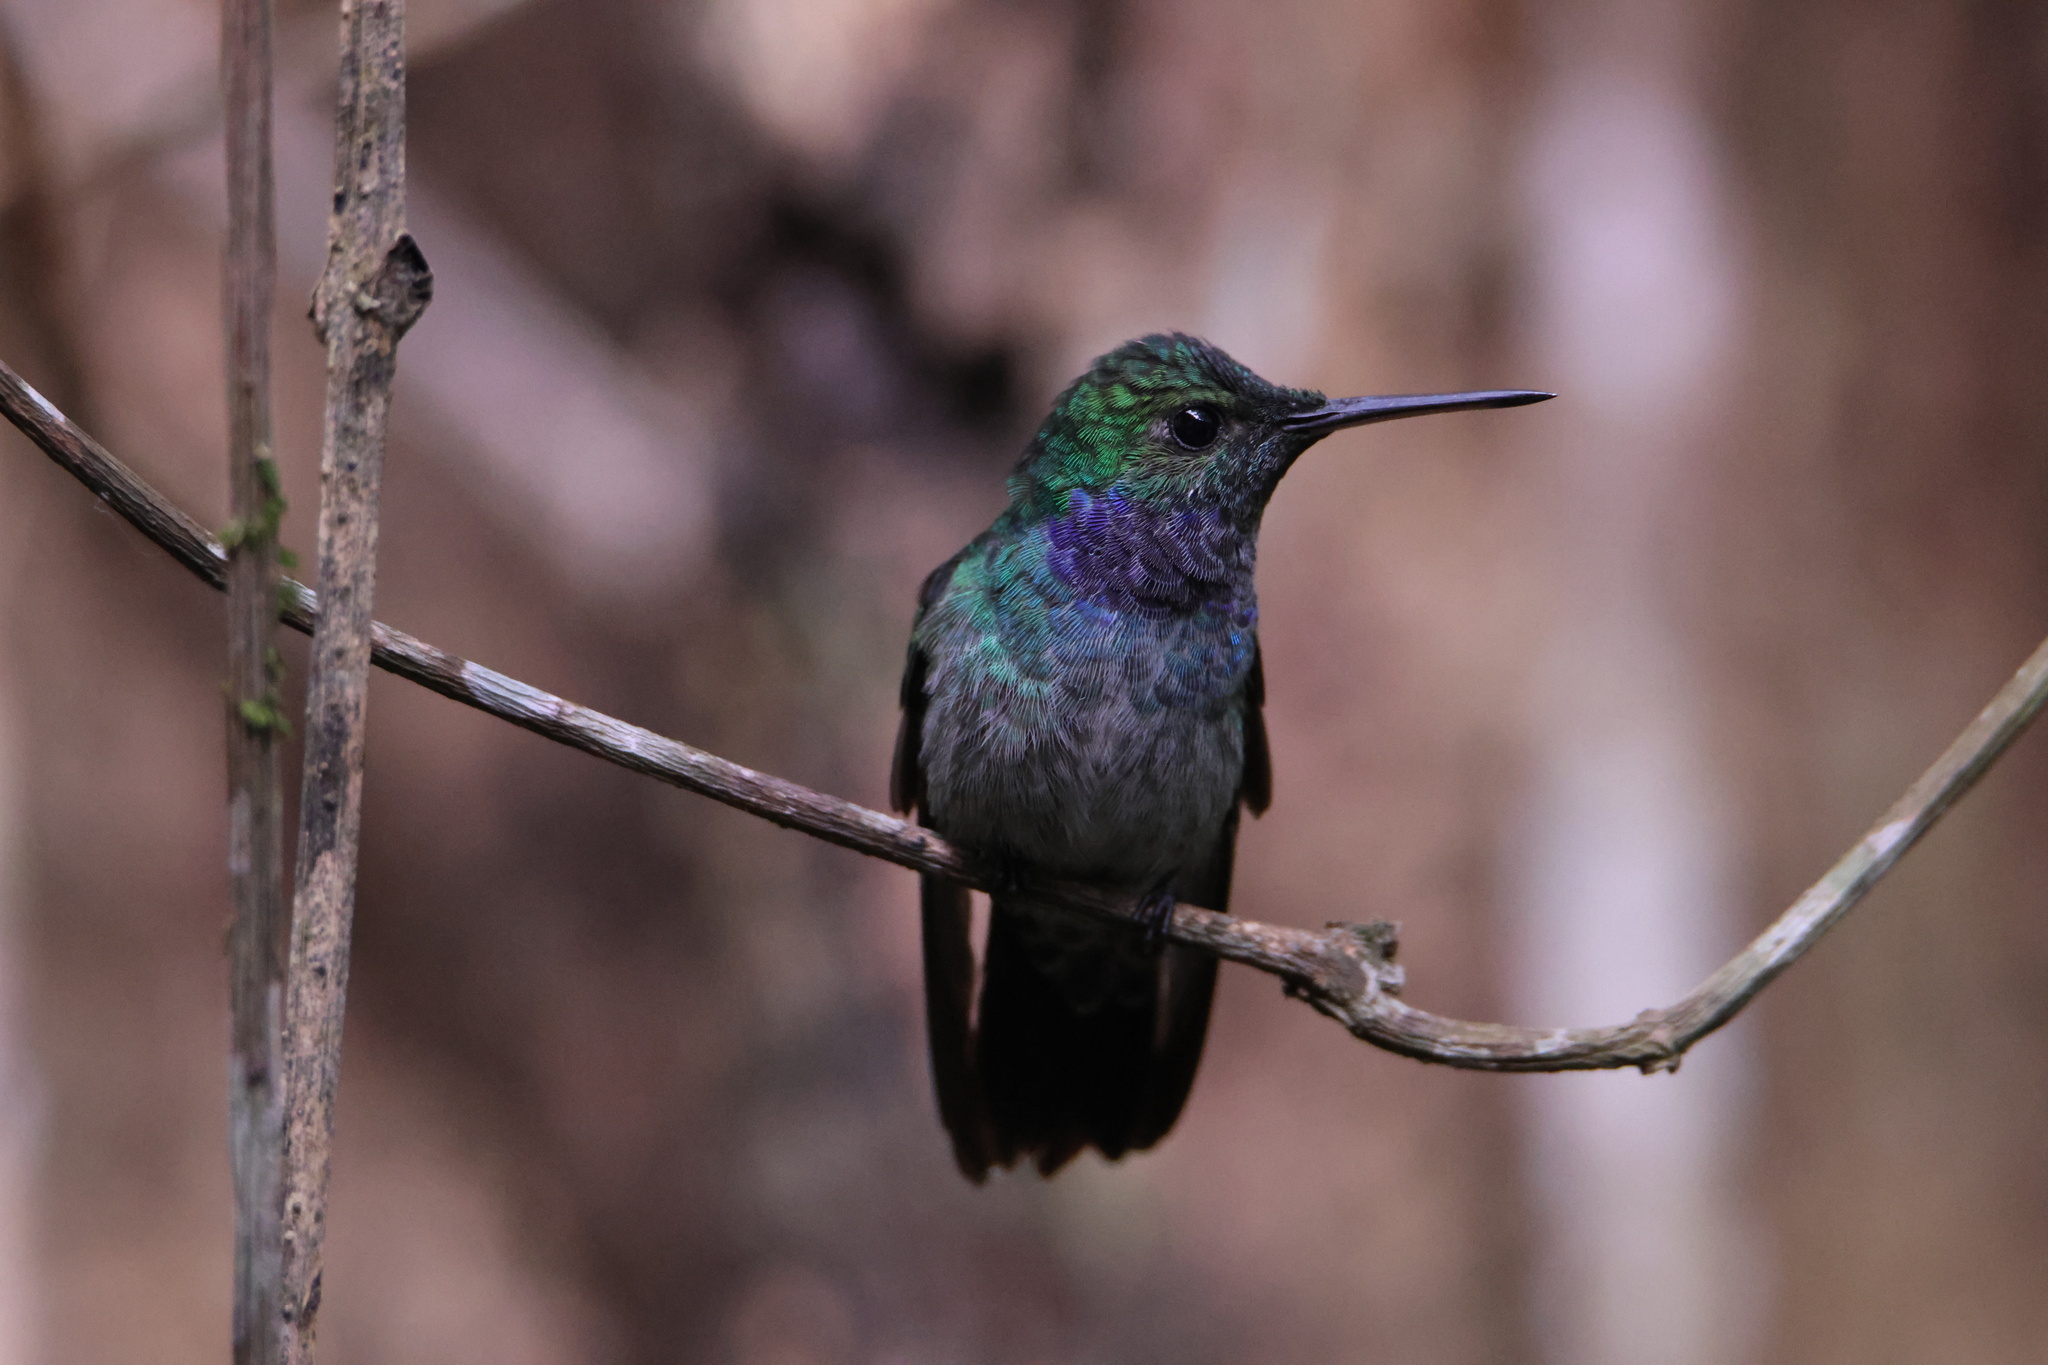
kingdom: Animalia
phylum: Chordata
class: Aves
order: Apodiformes
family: Trochilidae
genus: Polyerata
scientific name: Polyerata amabilis
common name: Blue-chested hummingbird
